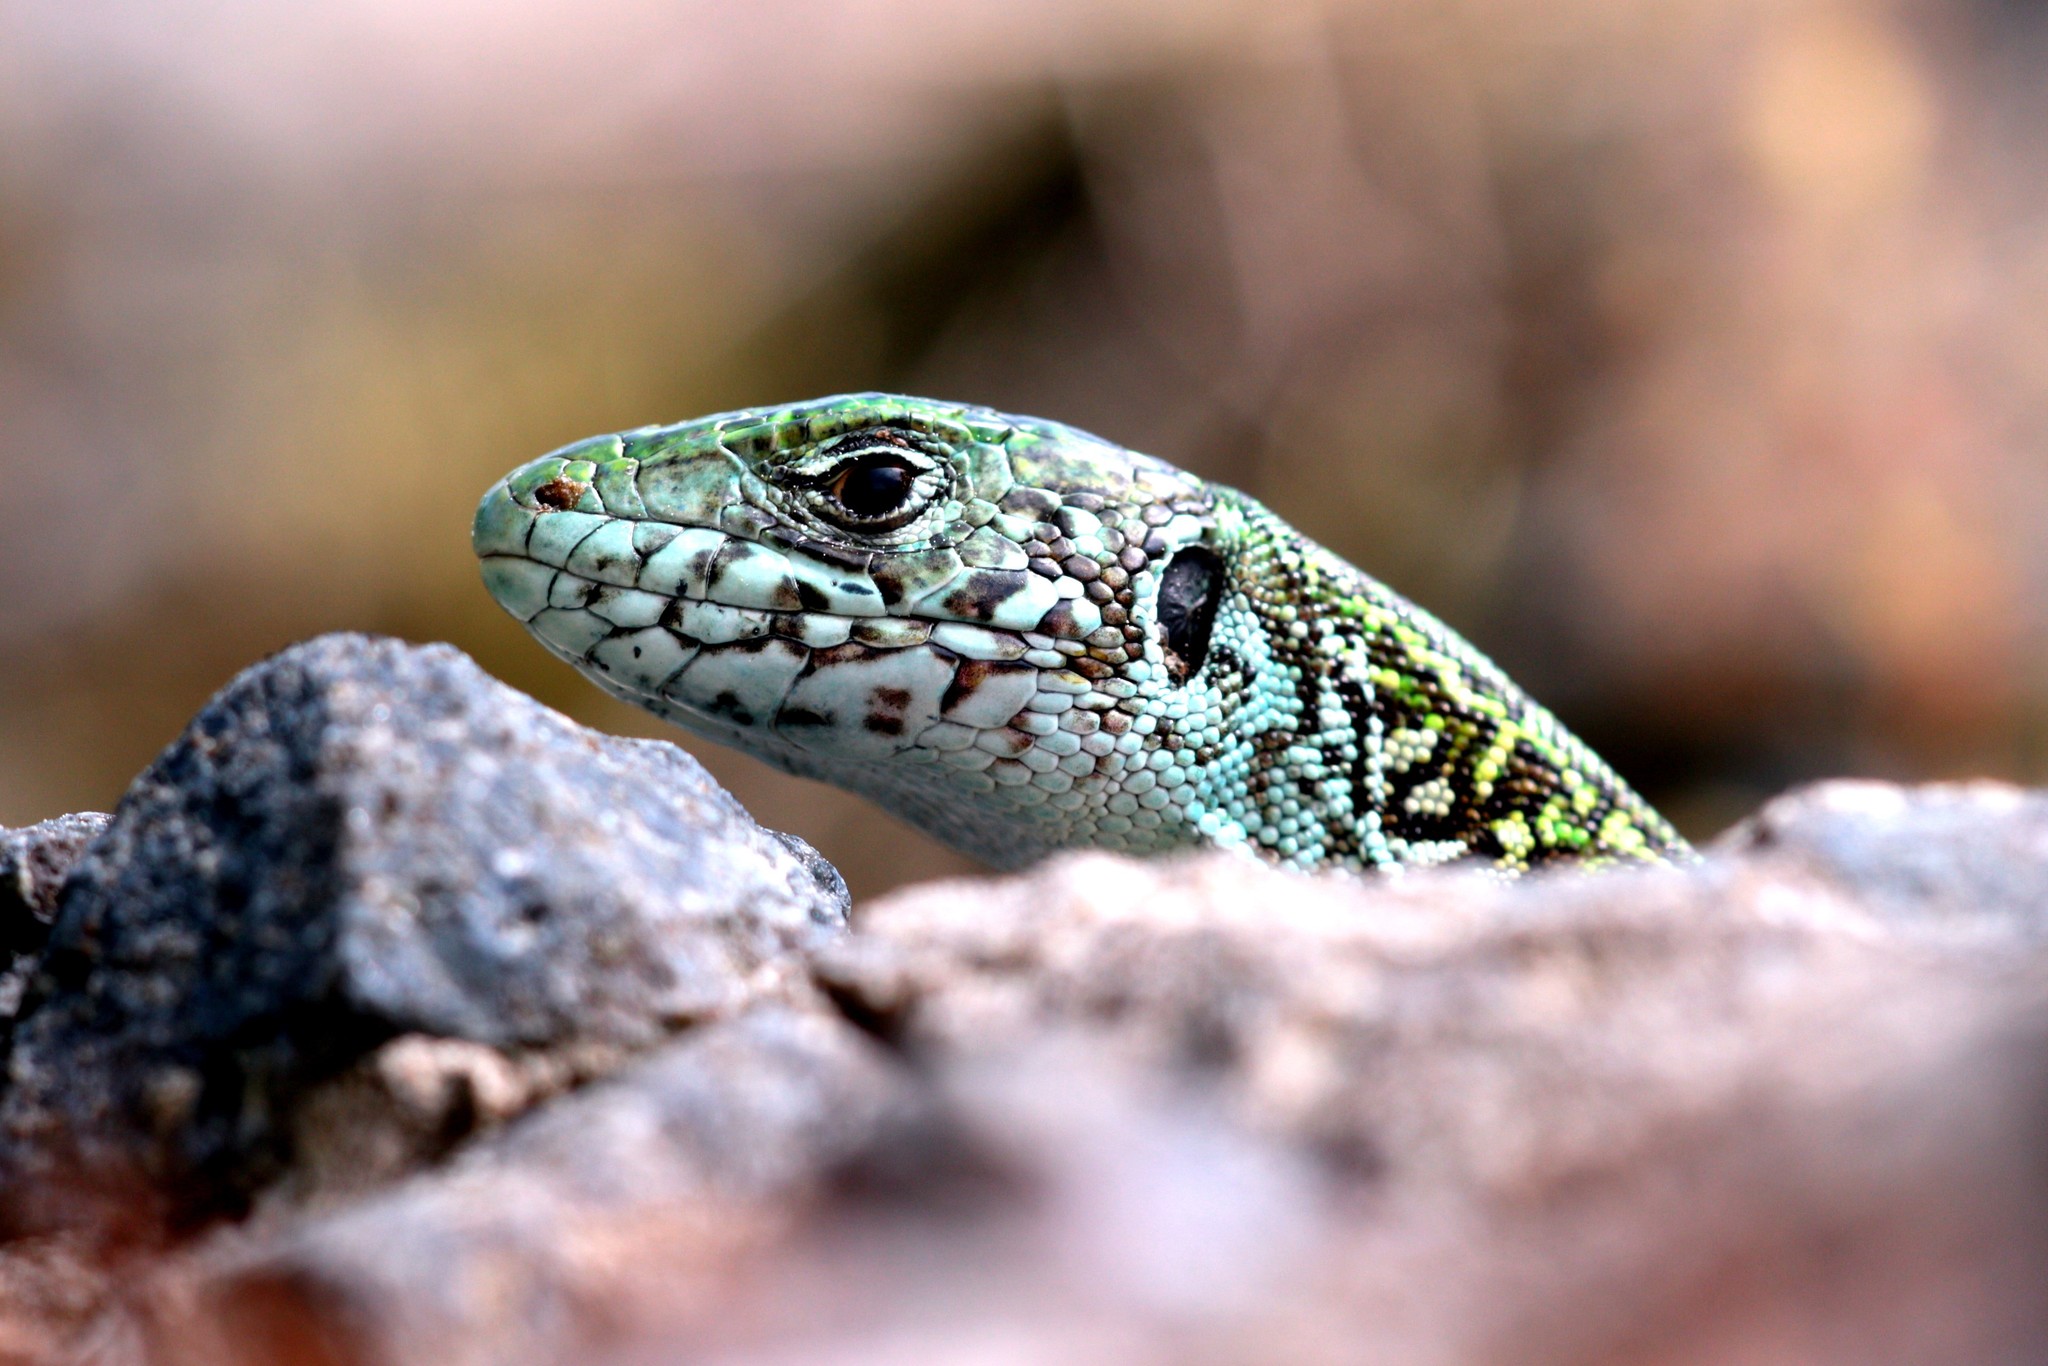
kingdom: Animalia
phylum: Chordata
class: Squamata
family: Lacertidae
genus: Lacerta
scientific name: Lacerta viridis
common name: European green lizard
